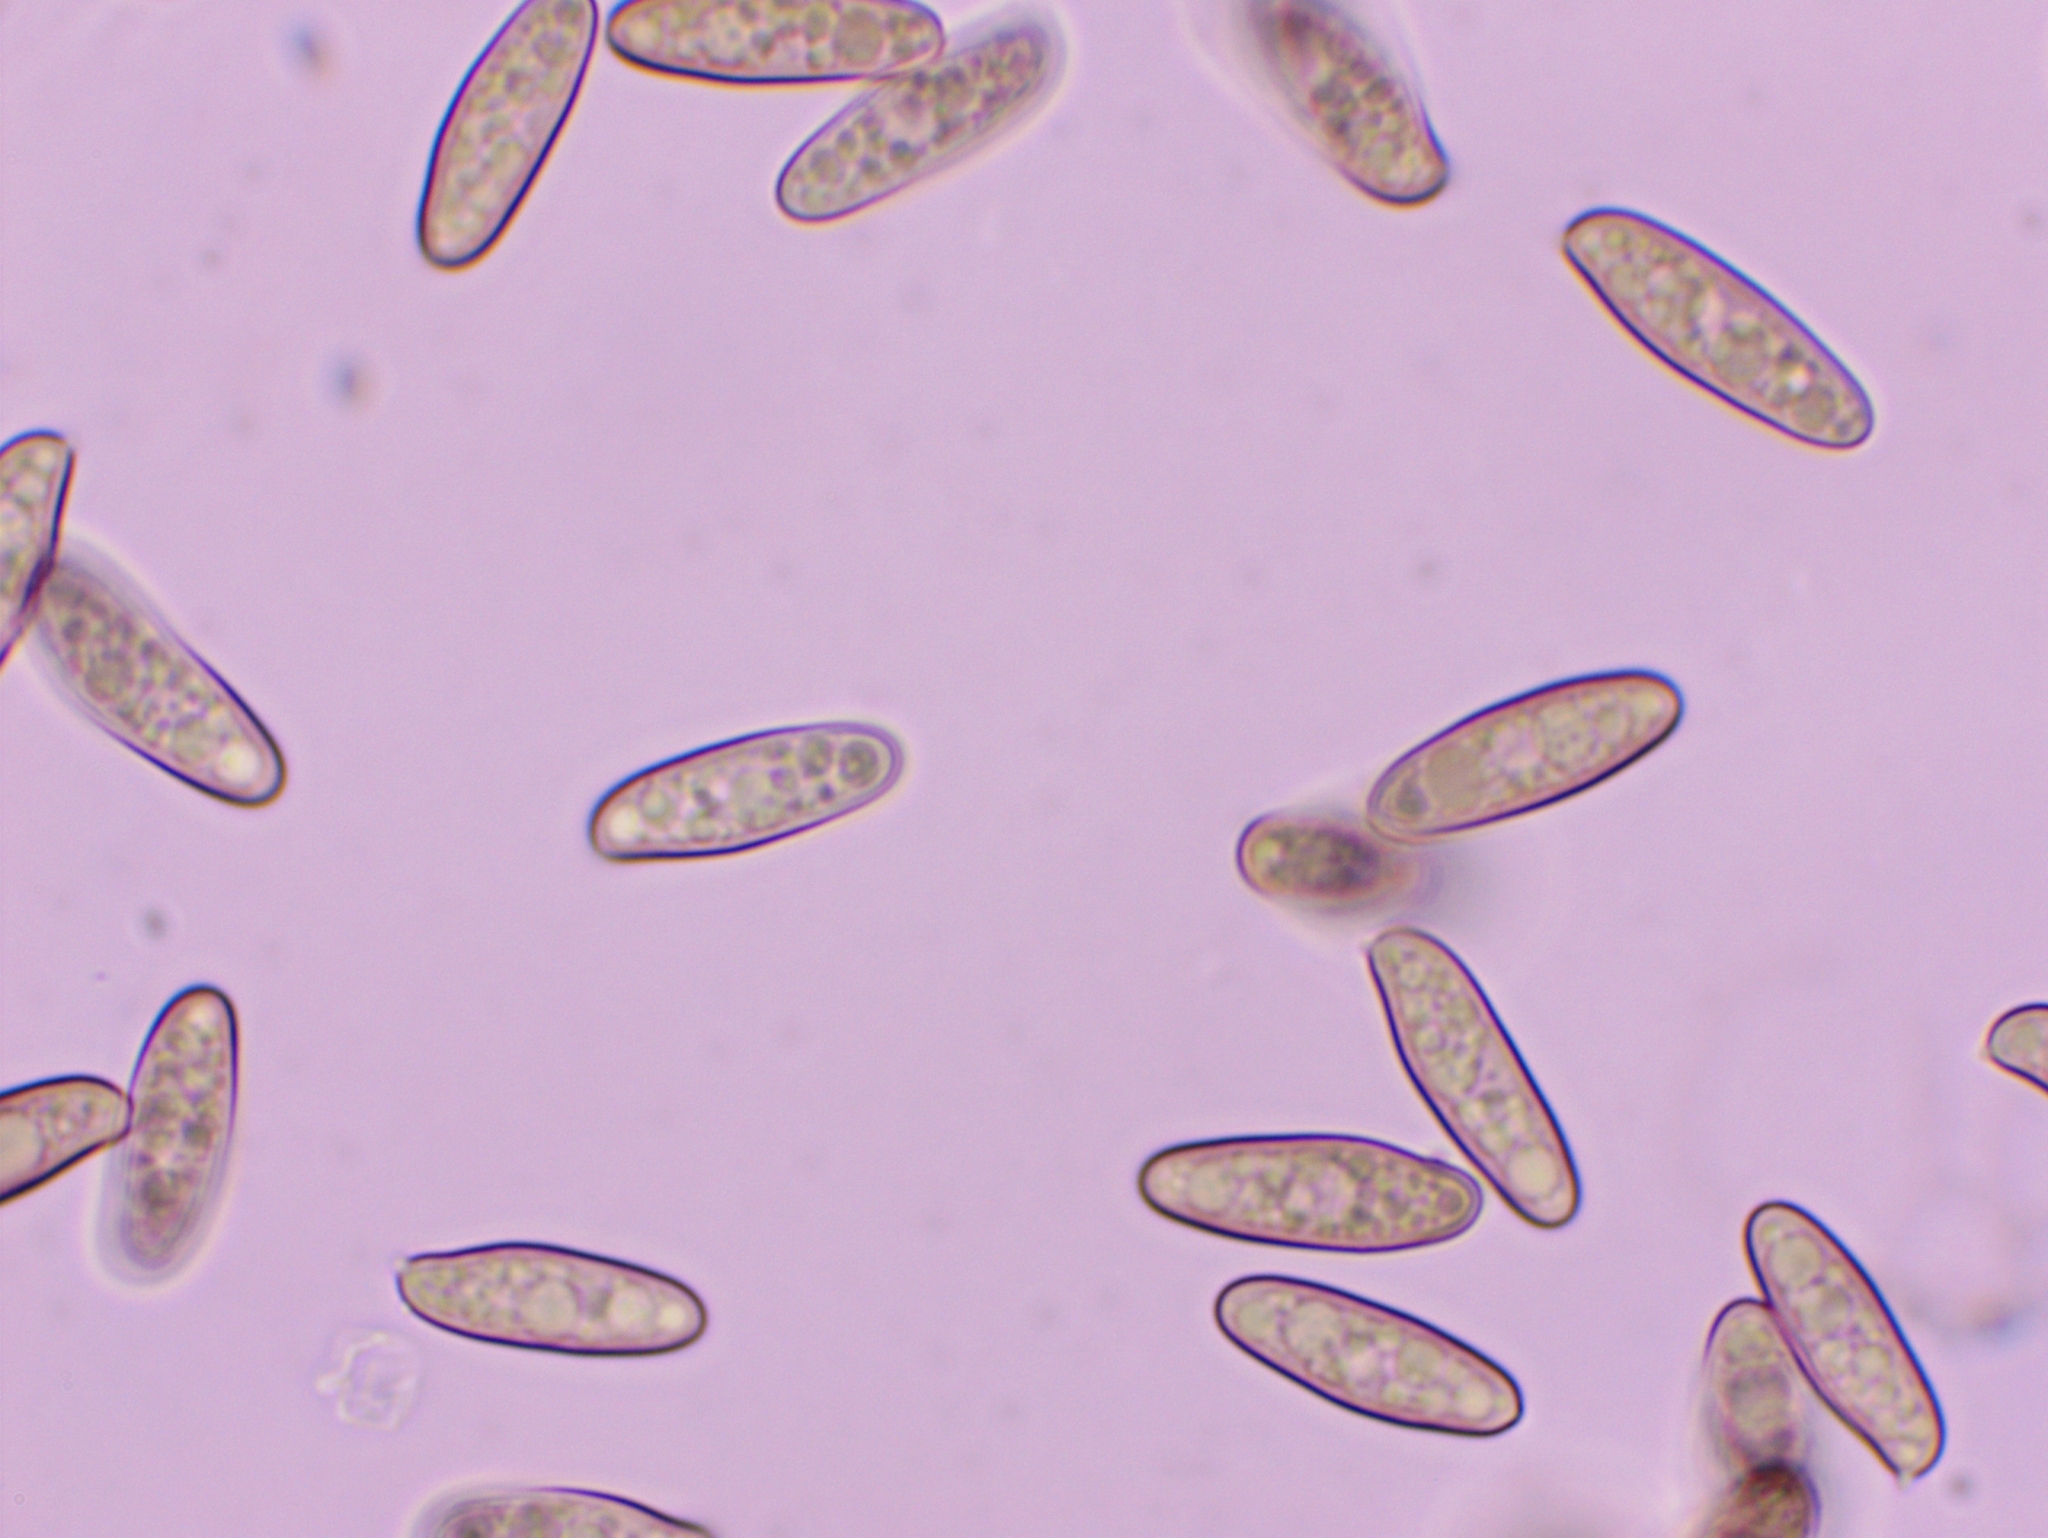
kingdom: Fungi
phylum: Basidiomycota
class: Agaricomycetes
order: Boletales
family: Gomphidiaceae
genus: Chroogomphus
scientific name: Chroogomphus rutilus
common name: Copper spike
